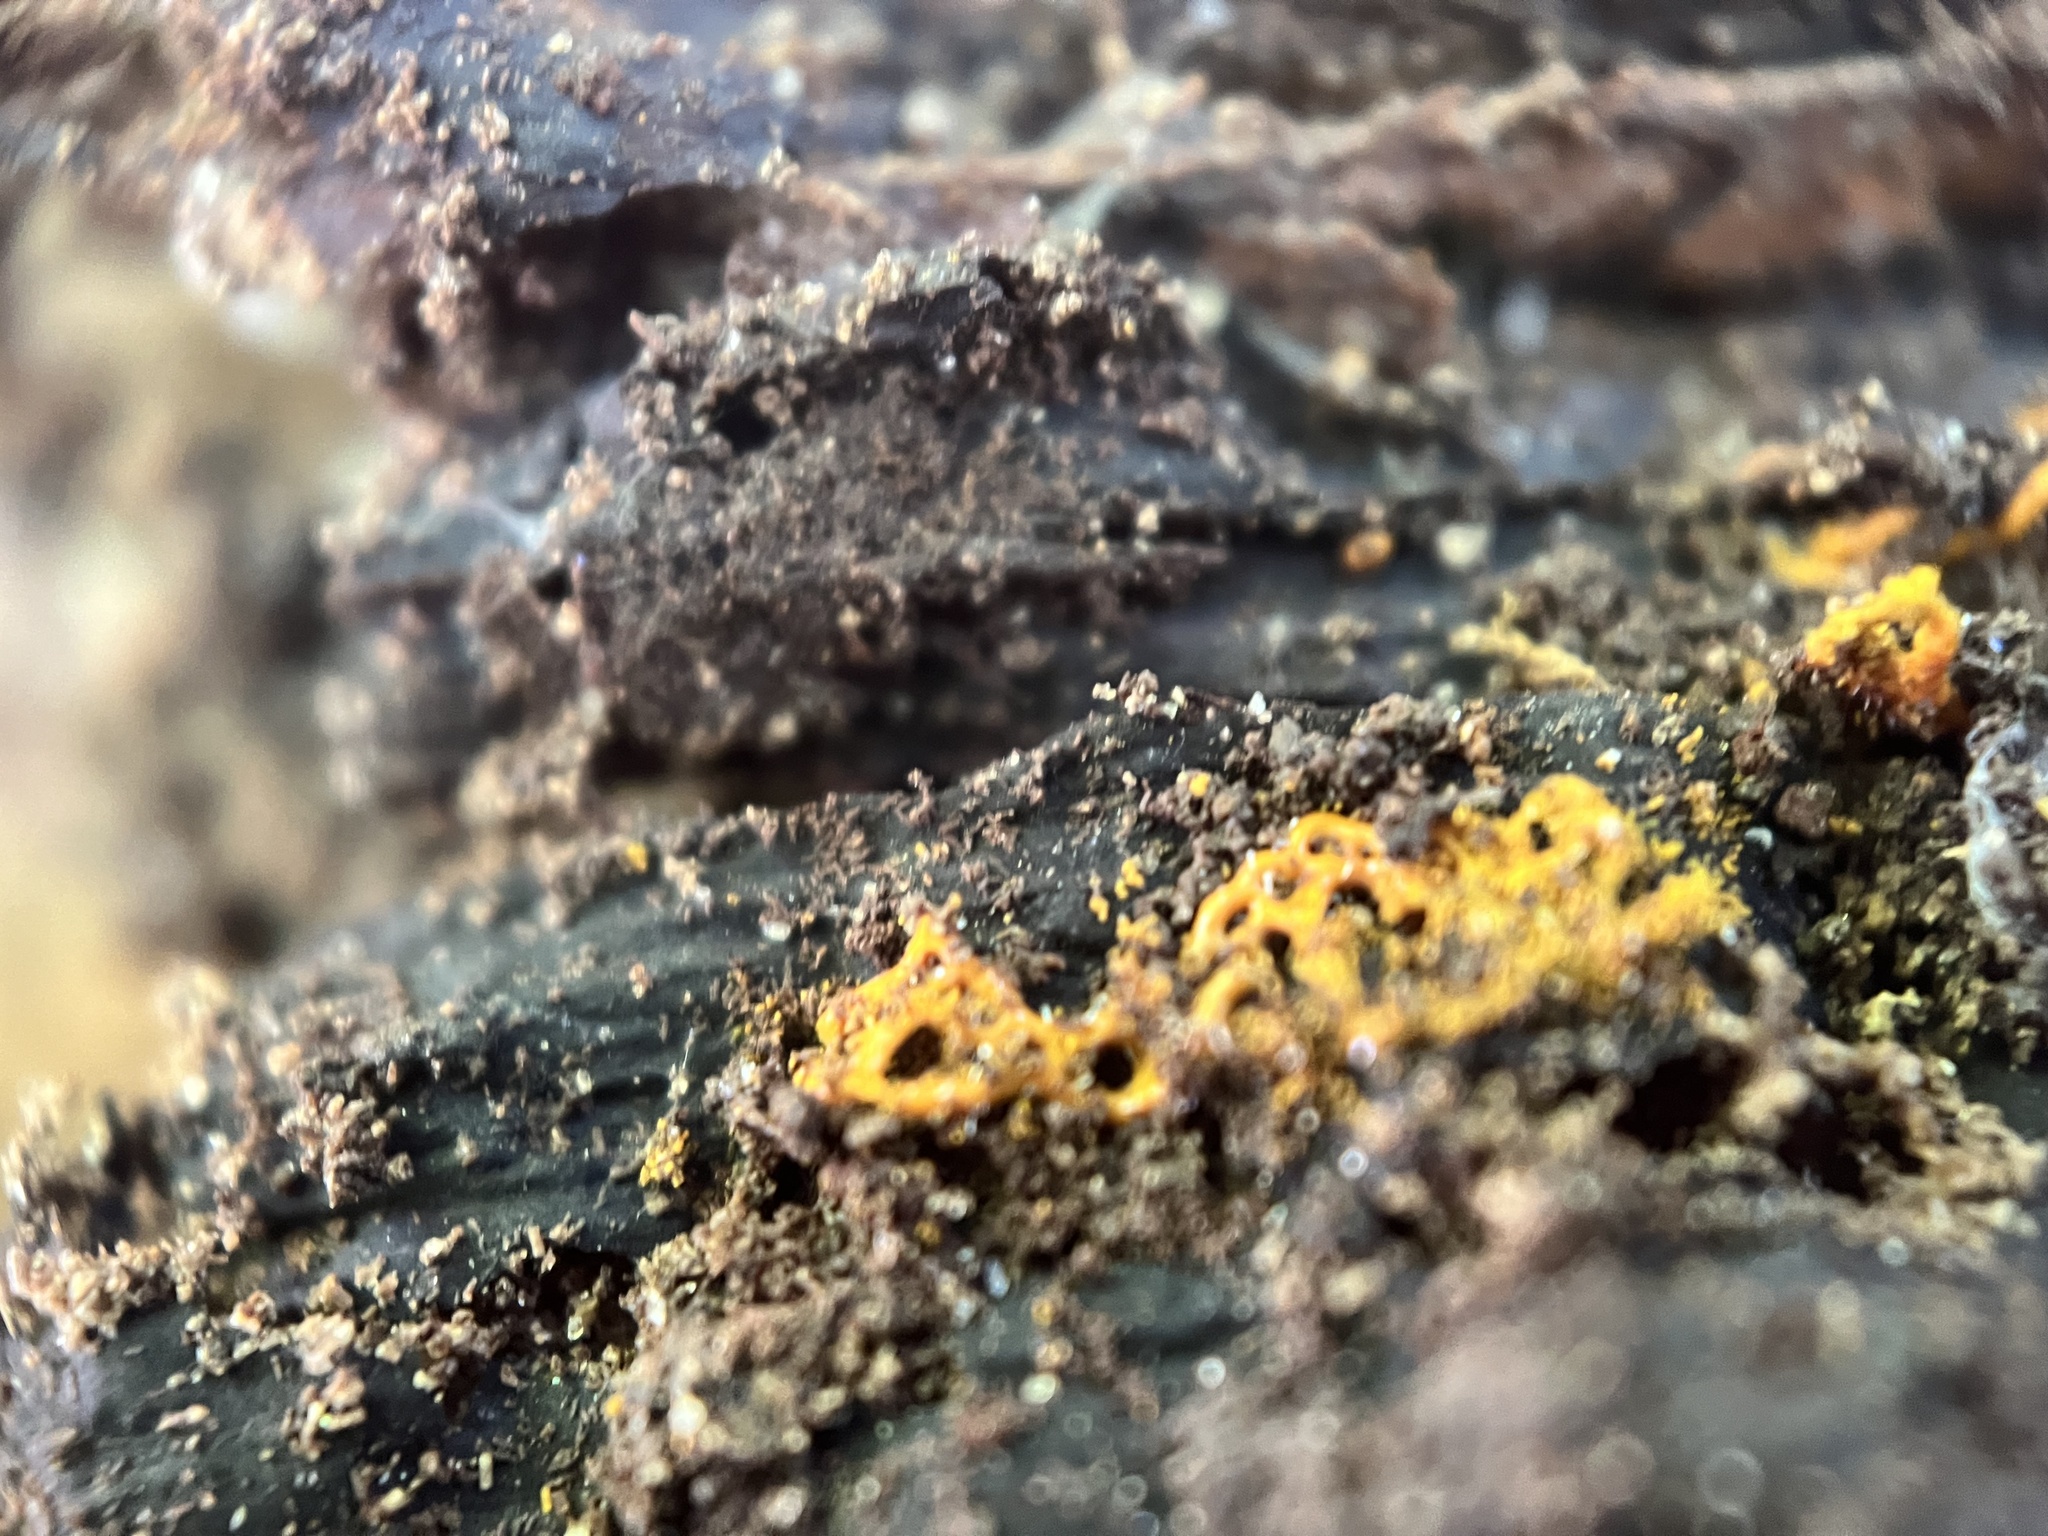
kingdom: Protozoa
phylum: Mycetozoa
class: Myxomycetes
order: Trichiales
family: Arcyriaceae
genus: Hemitrichia
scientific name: Hemitrichia serpula
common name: Pretzel slime mold
